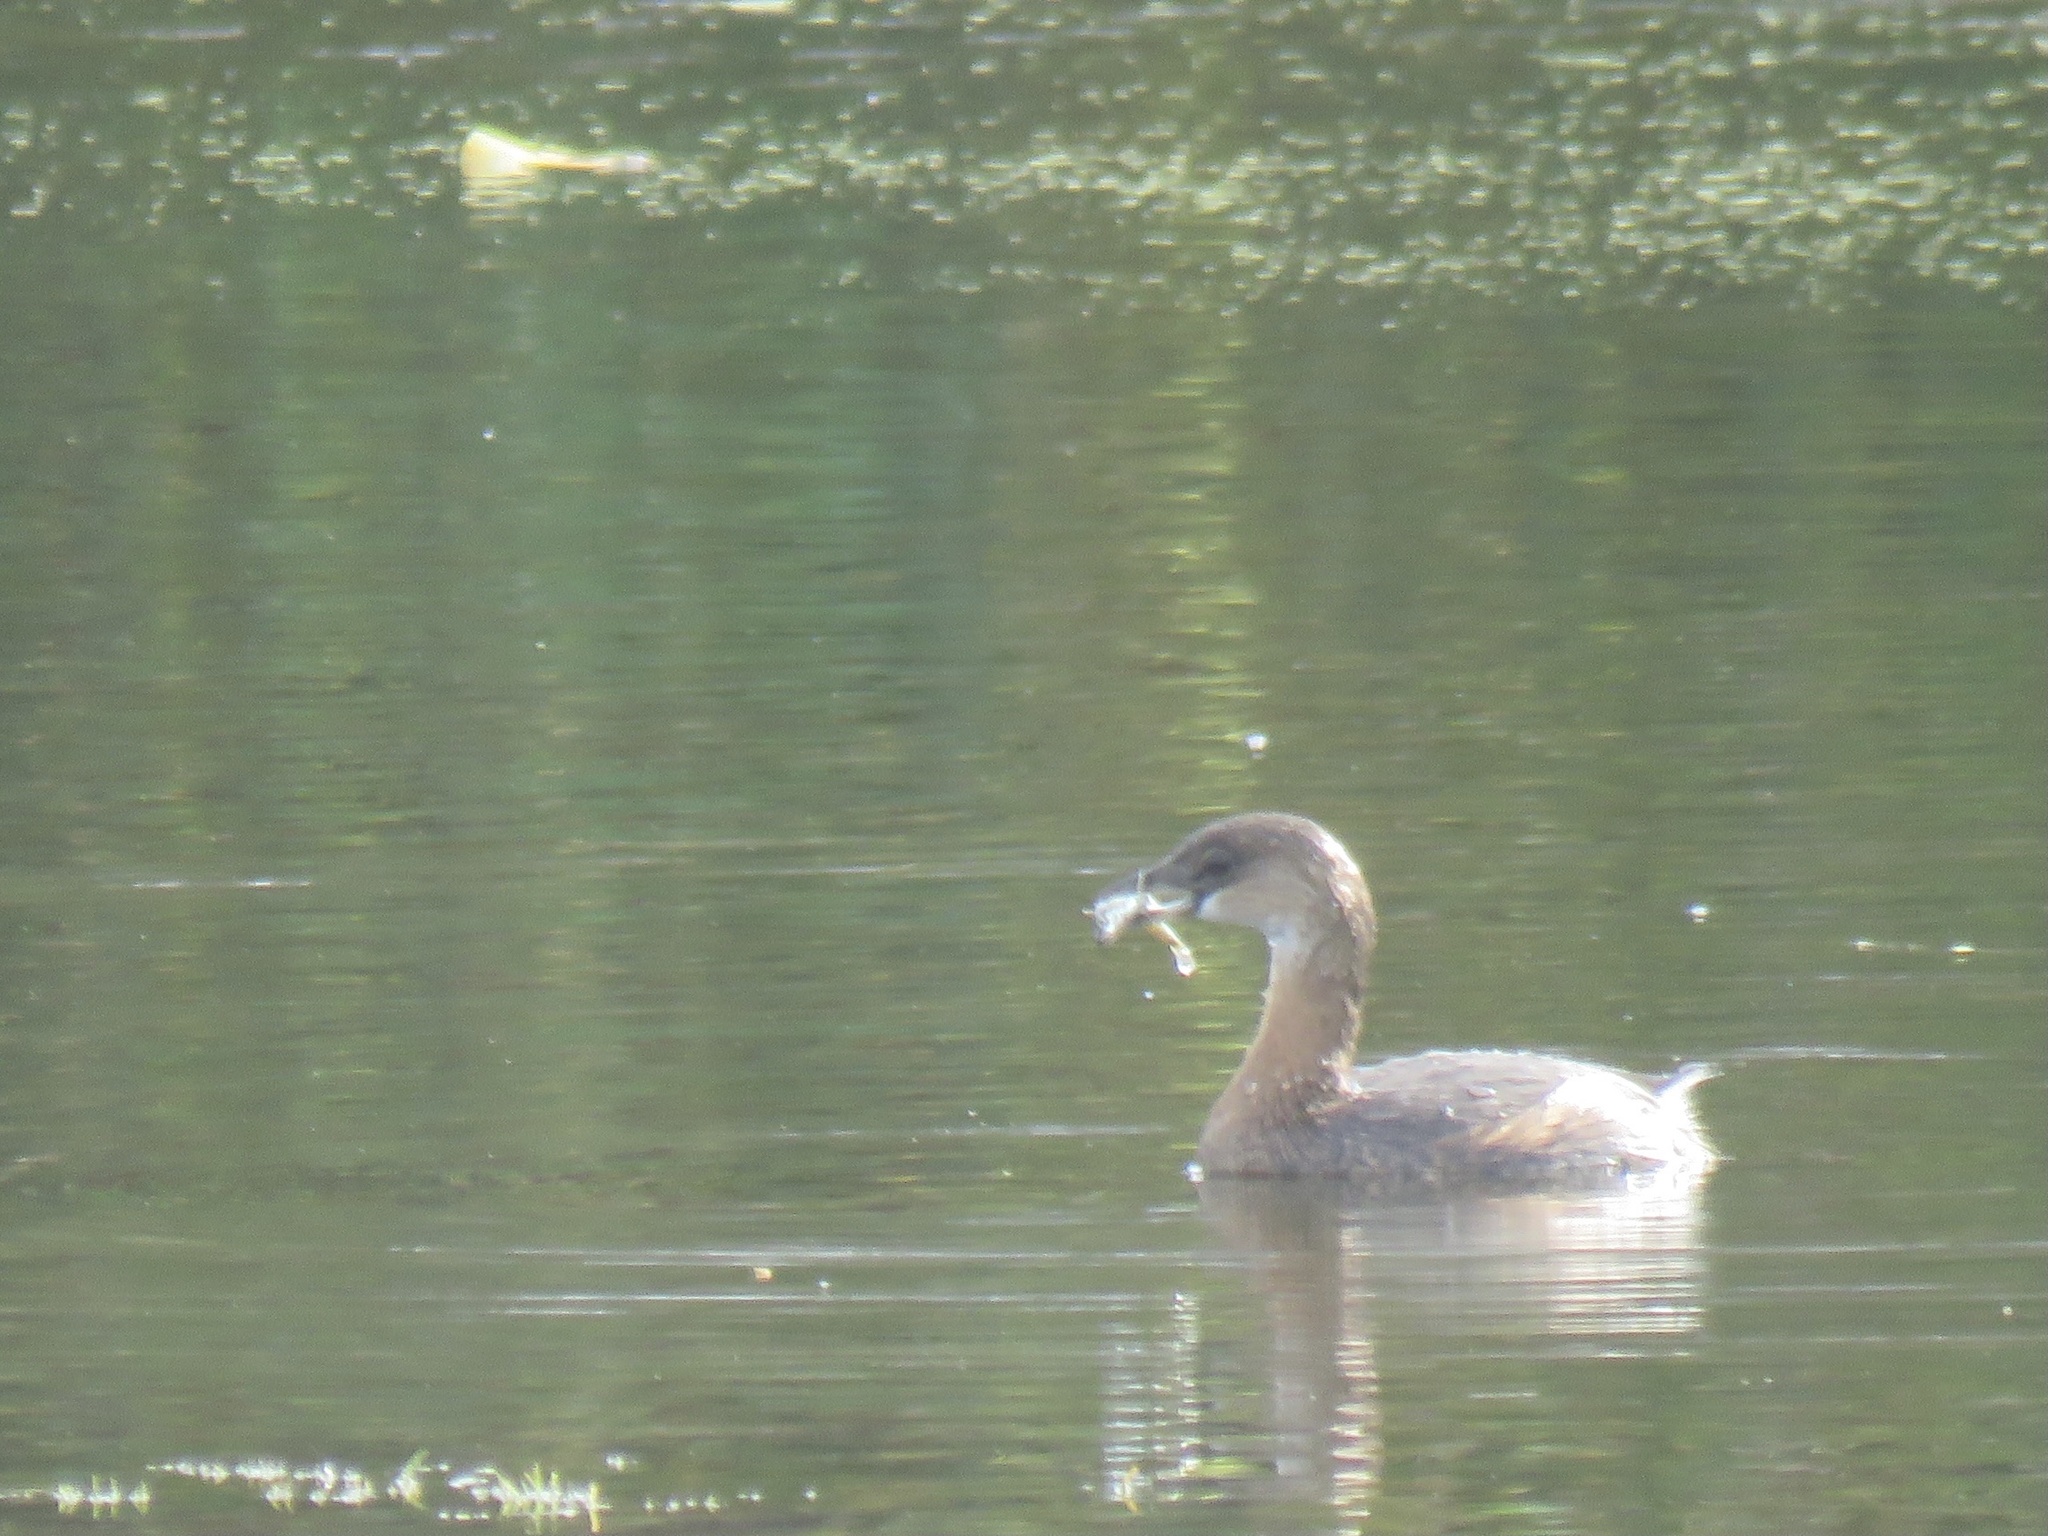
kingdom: Animalia
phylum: Chordata
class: Aves
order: Podicipediformes
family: Podicipedidae
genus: Podilymbus
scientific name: Podilymbus podiceps
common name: Pied-billed grebe
